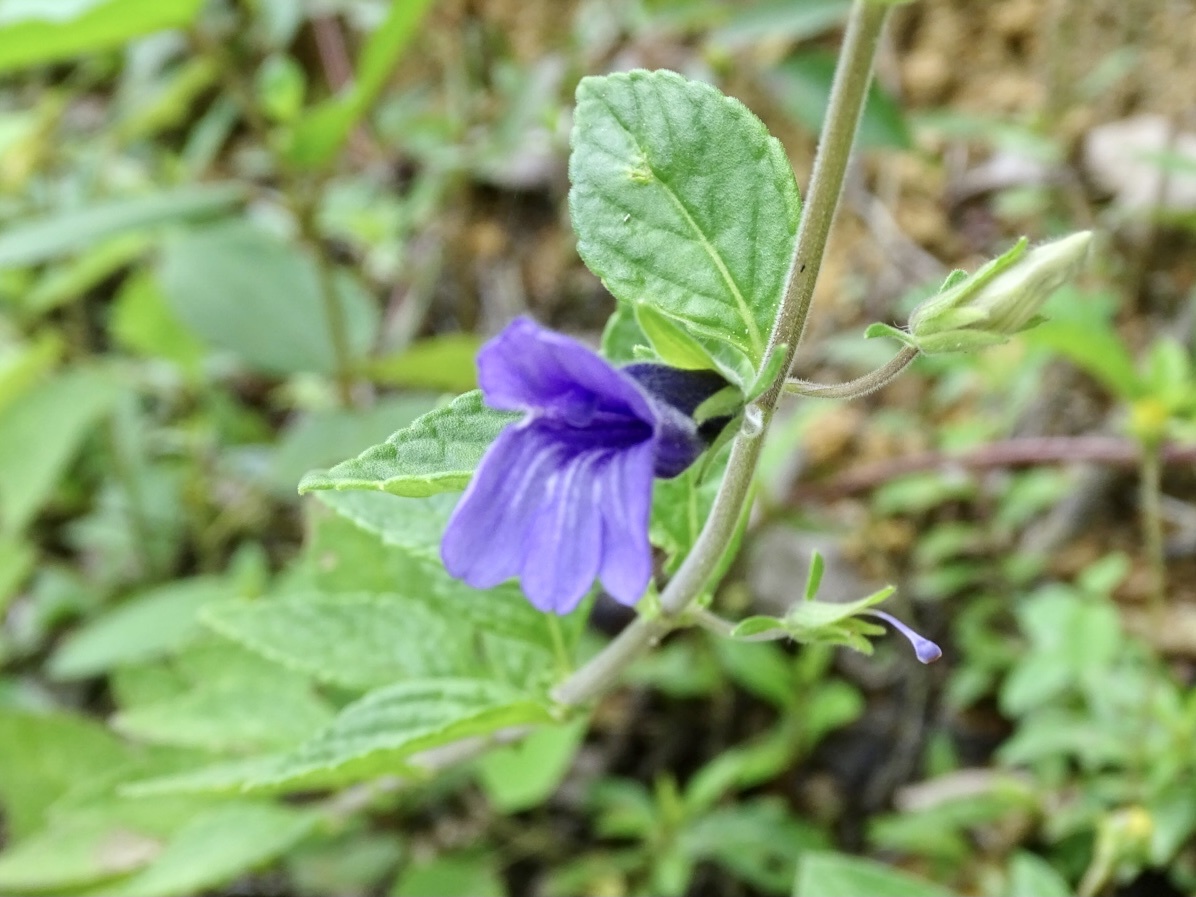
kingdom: Plantae
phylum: Tracheophyta
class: Magnoliopsida
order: Lamiales
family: Plantaginaceae
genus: Adenosma
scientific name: Adenosma glutinosa
